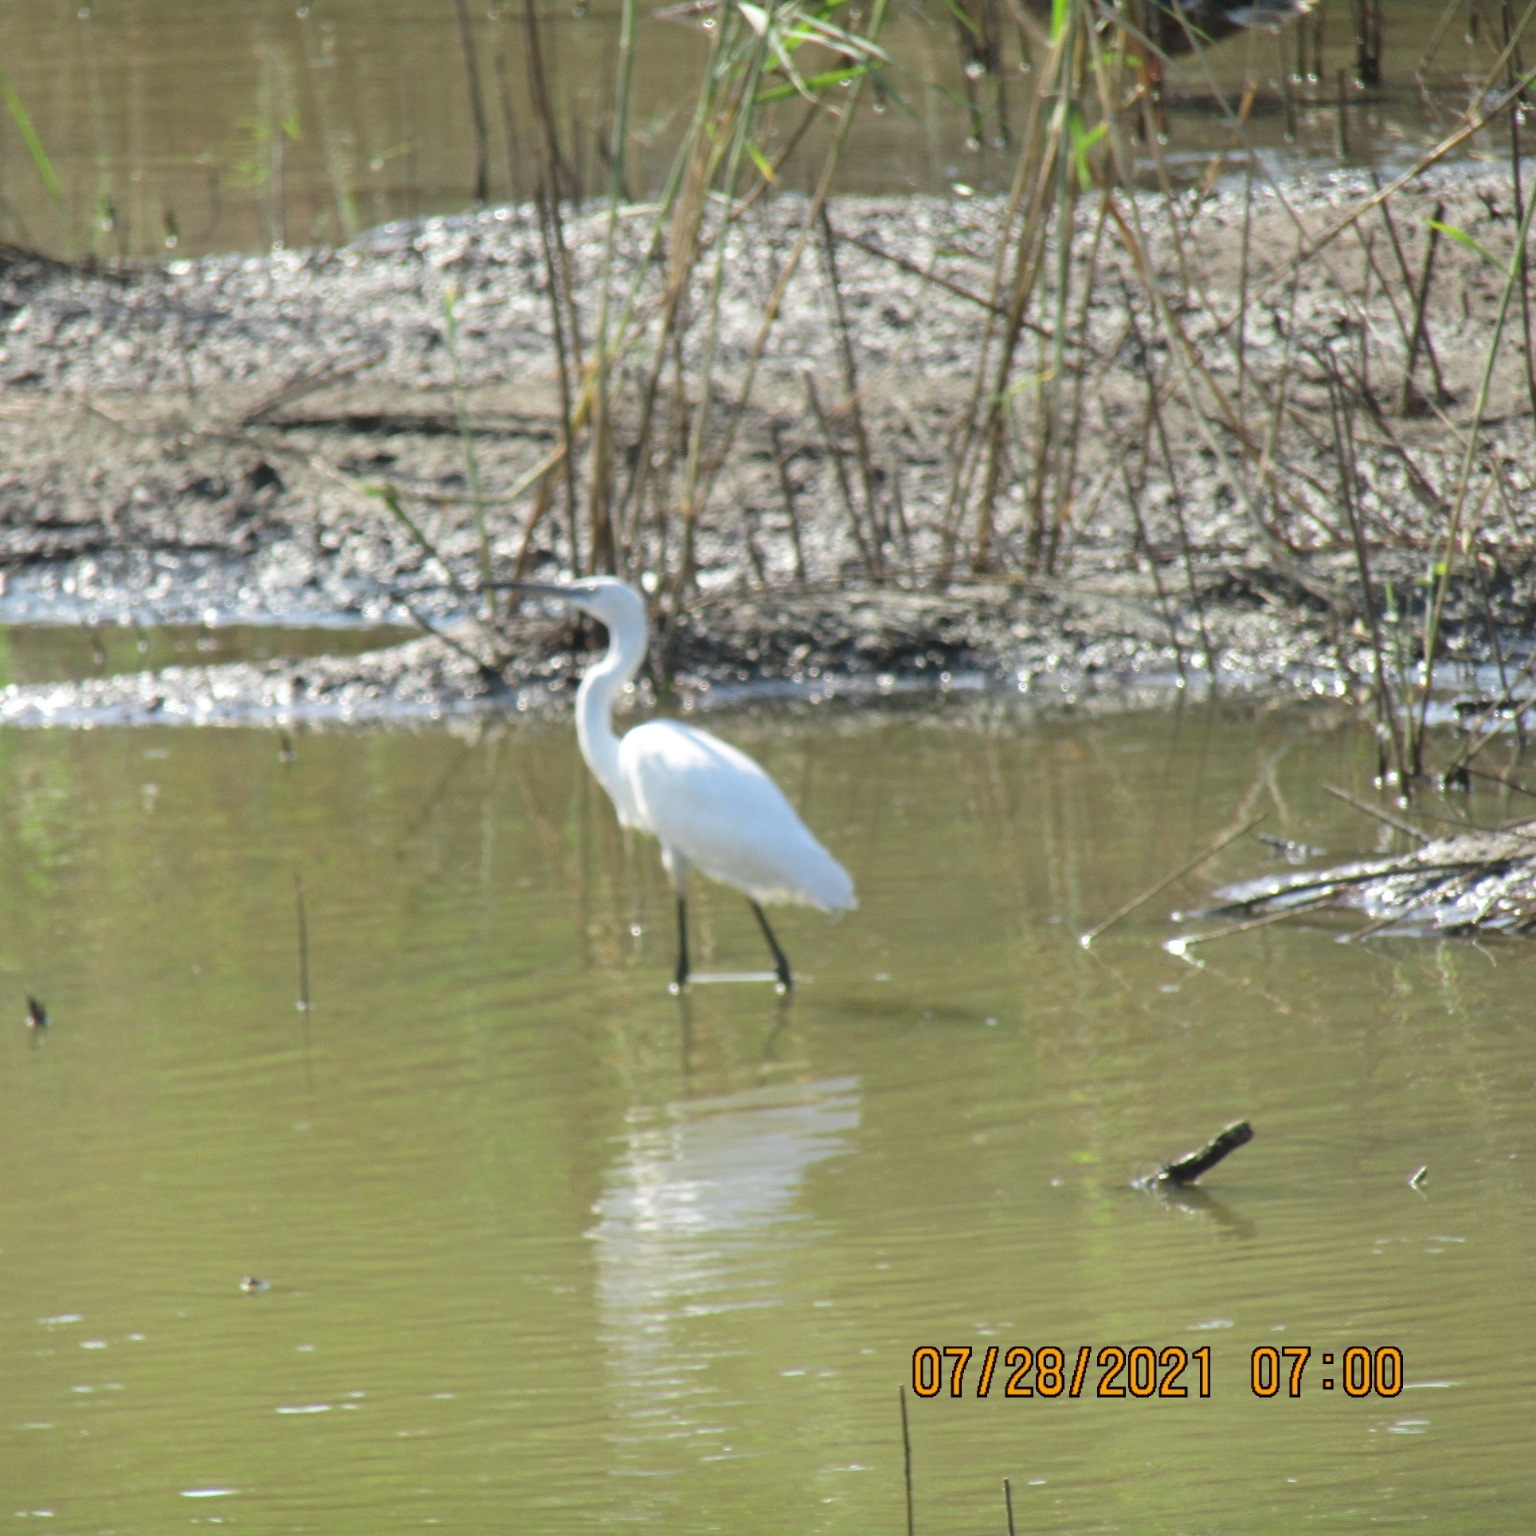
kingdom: Animalia
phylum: Chordata
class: Aves
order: Pelecaniformes
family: Ardeidae
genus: Egretta
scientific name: Egretta garzetta
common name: Little egret
